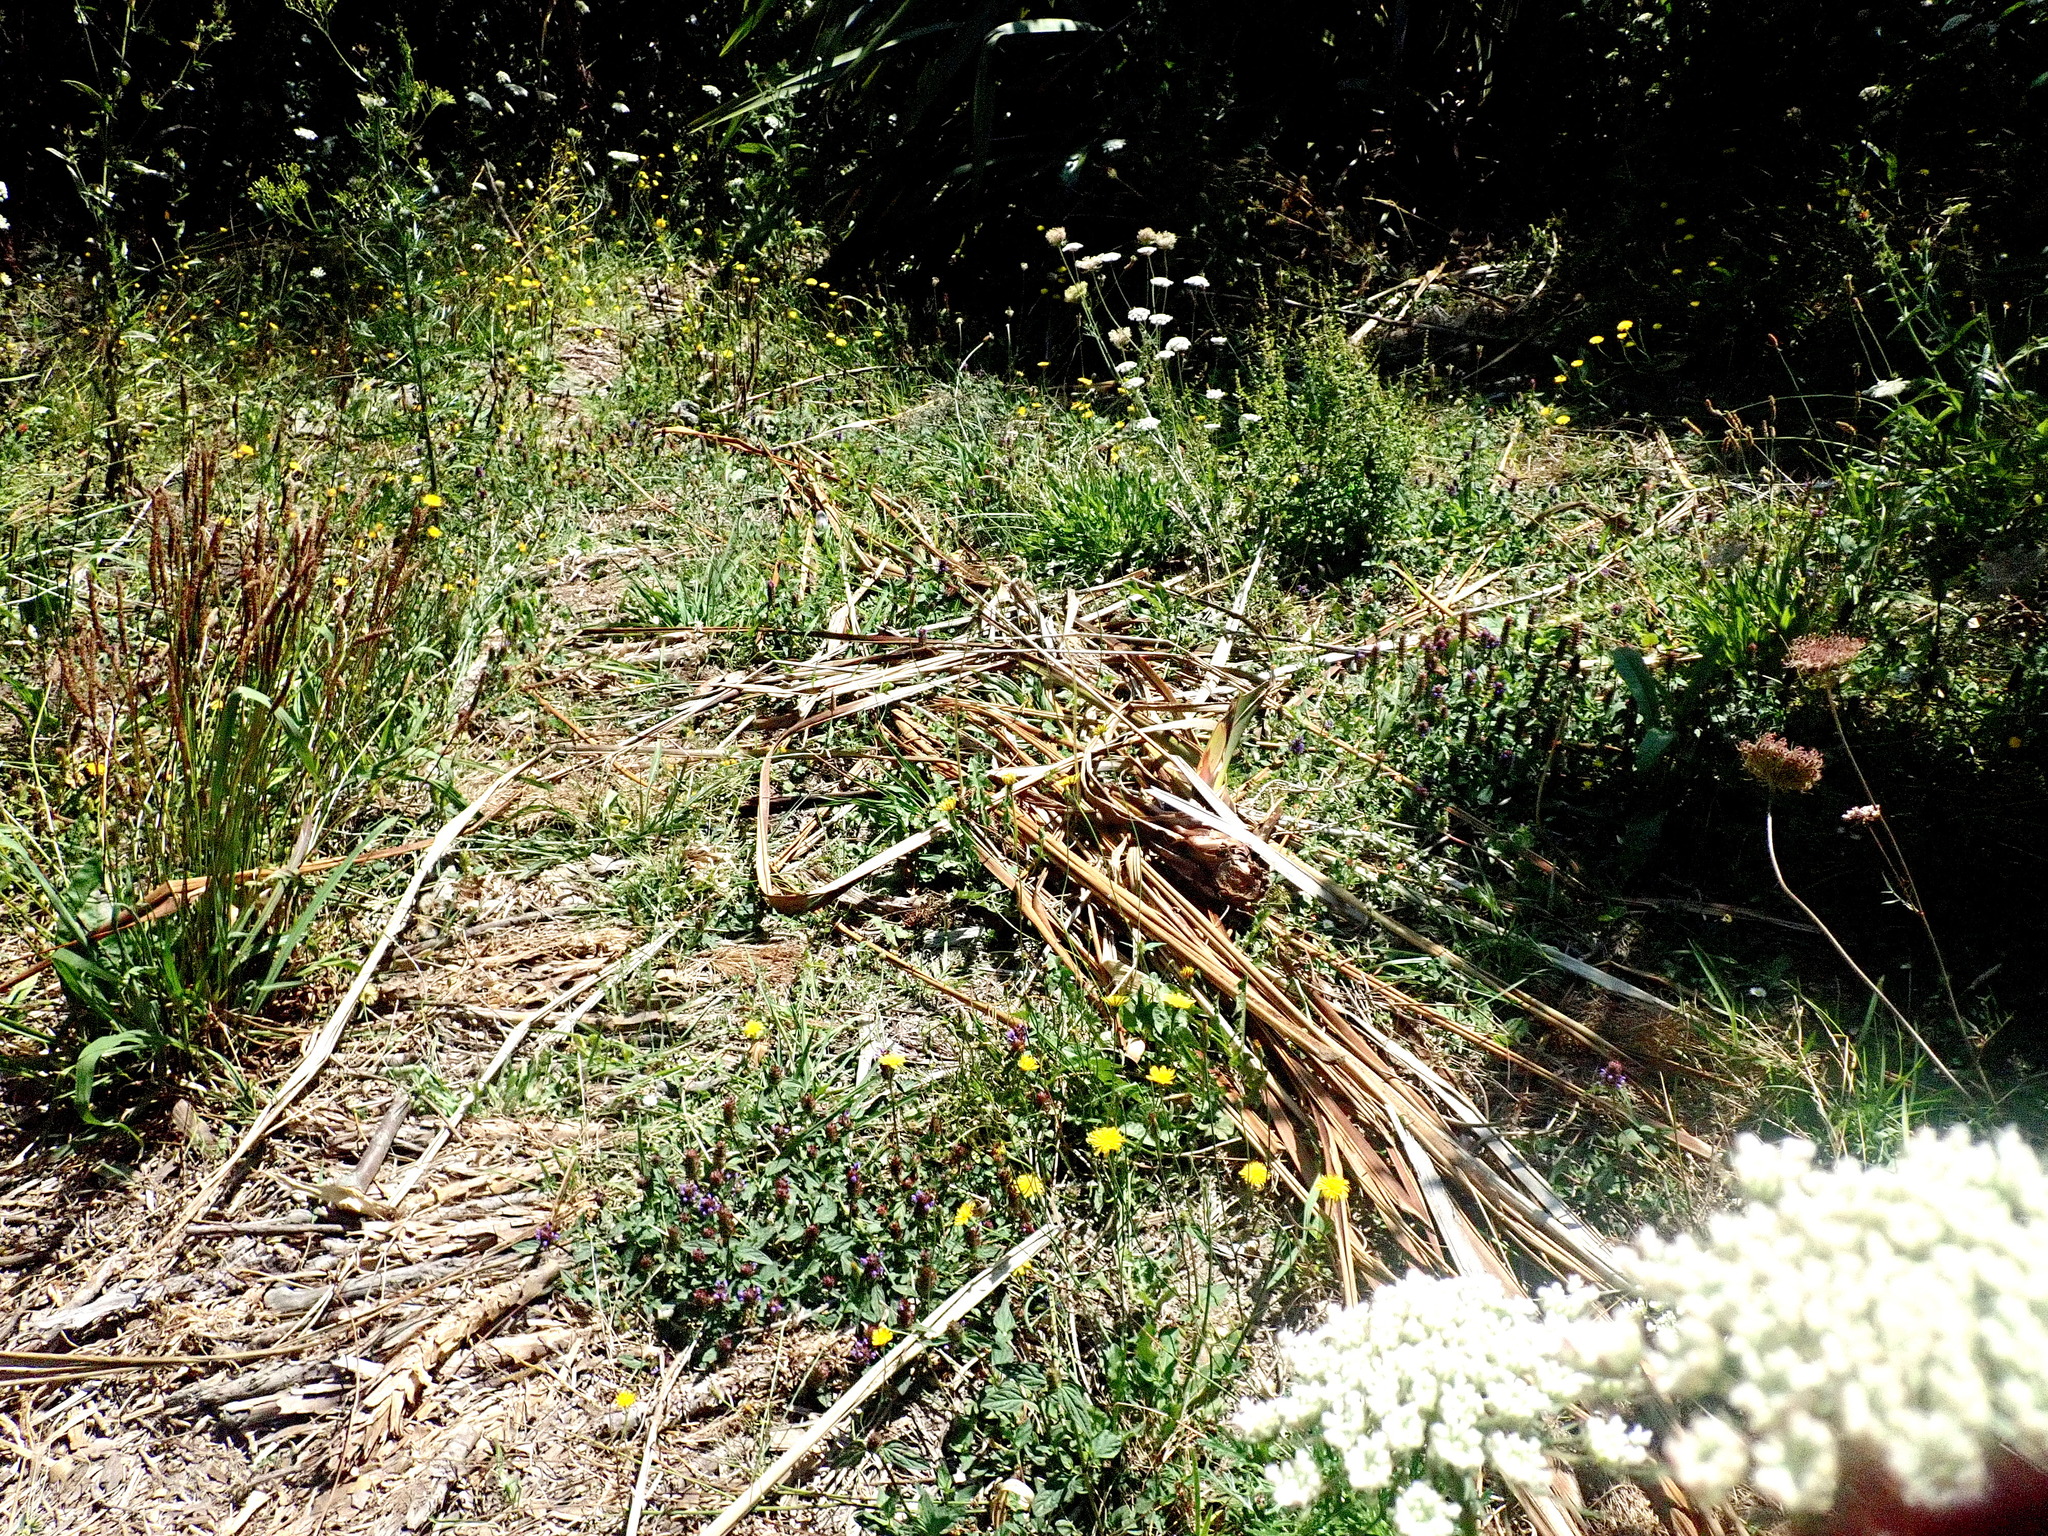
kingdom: Plantae
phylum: Tracheophyta
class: Magnoliopsida
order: Lamiales
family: Lamiaceae
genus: Prunella
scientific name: Prunella vulgaris
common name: Heal-all
